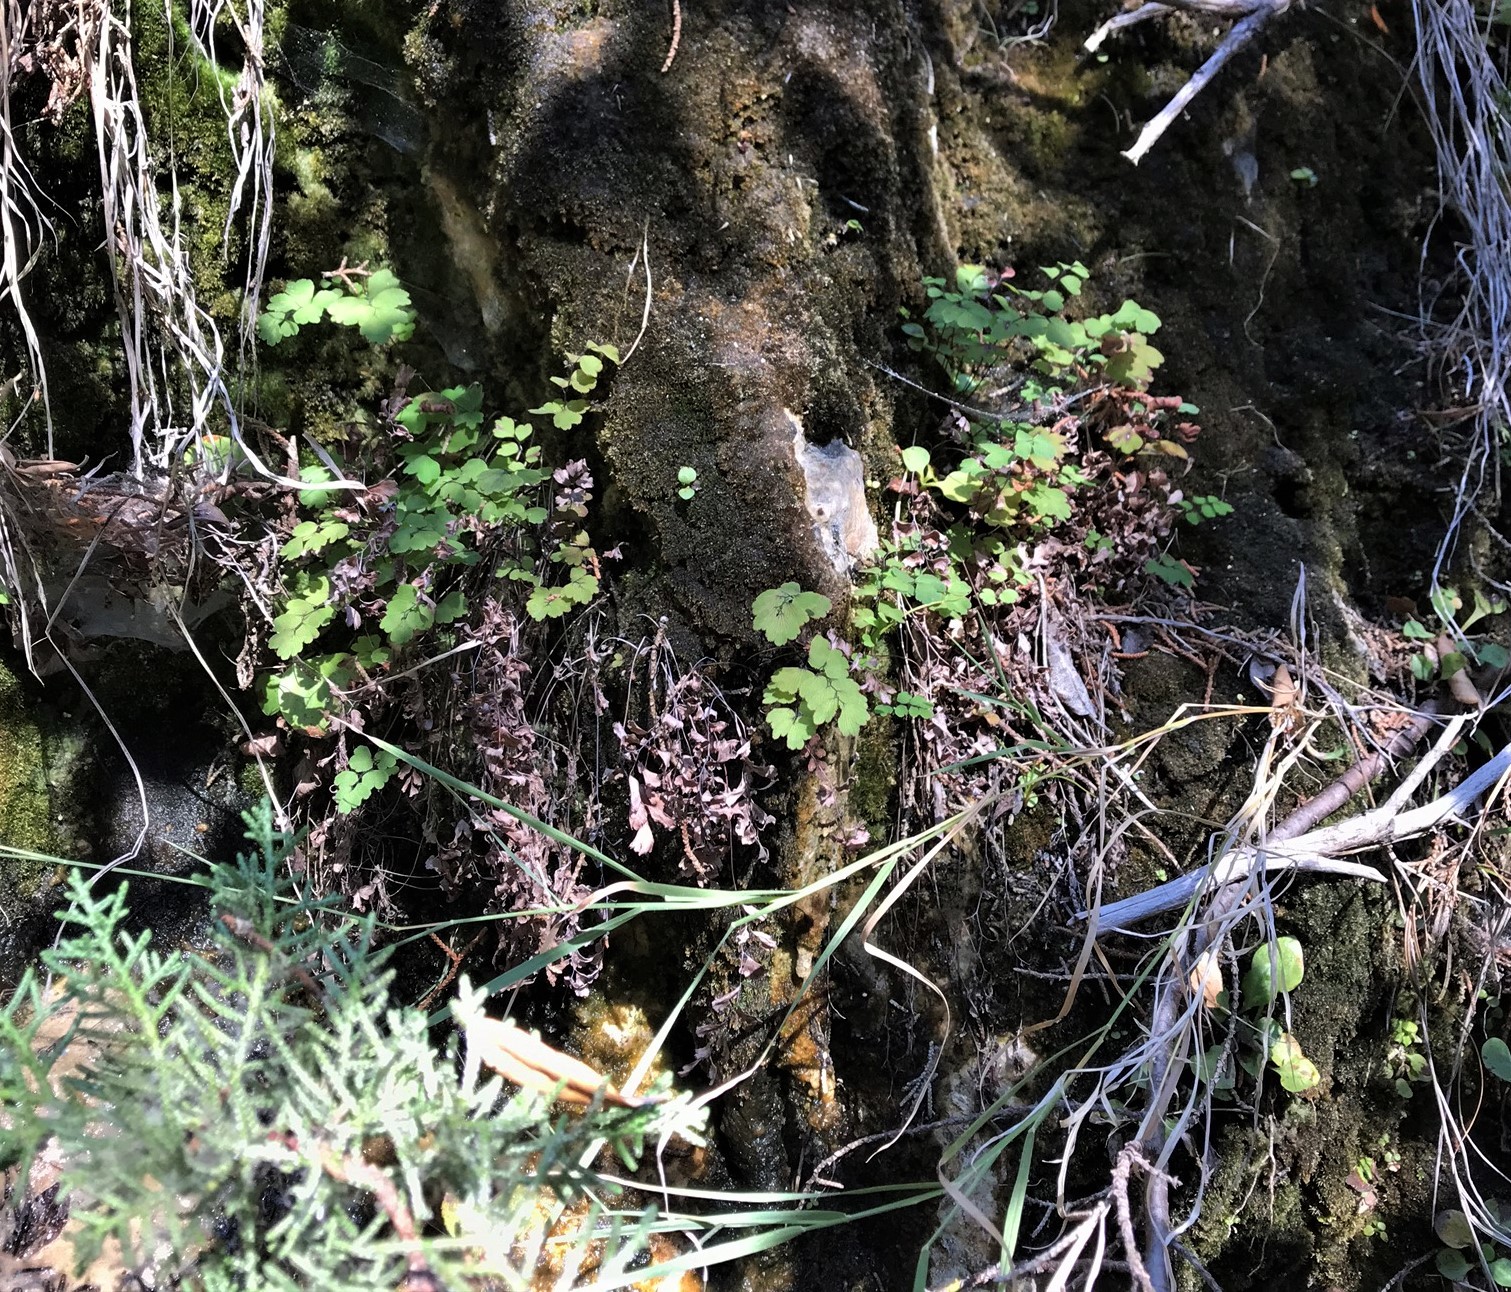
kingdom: Plantae
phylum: Tracheophyta
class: Polypodiopsida
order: Polypodiales
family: Pteridaceae
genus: Adiantum
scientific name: Adiantum capillus-veneris
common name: Maidenhair fern
